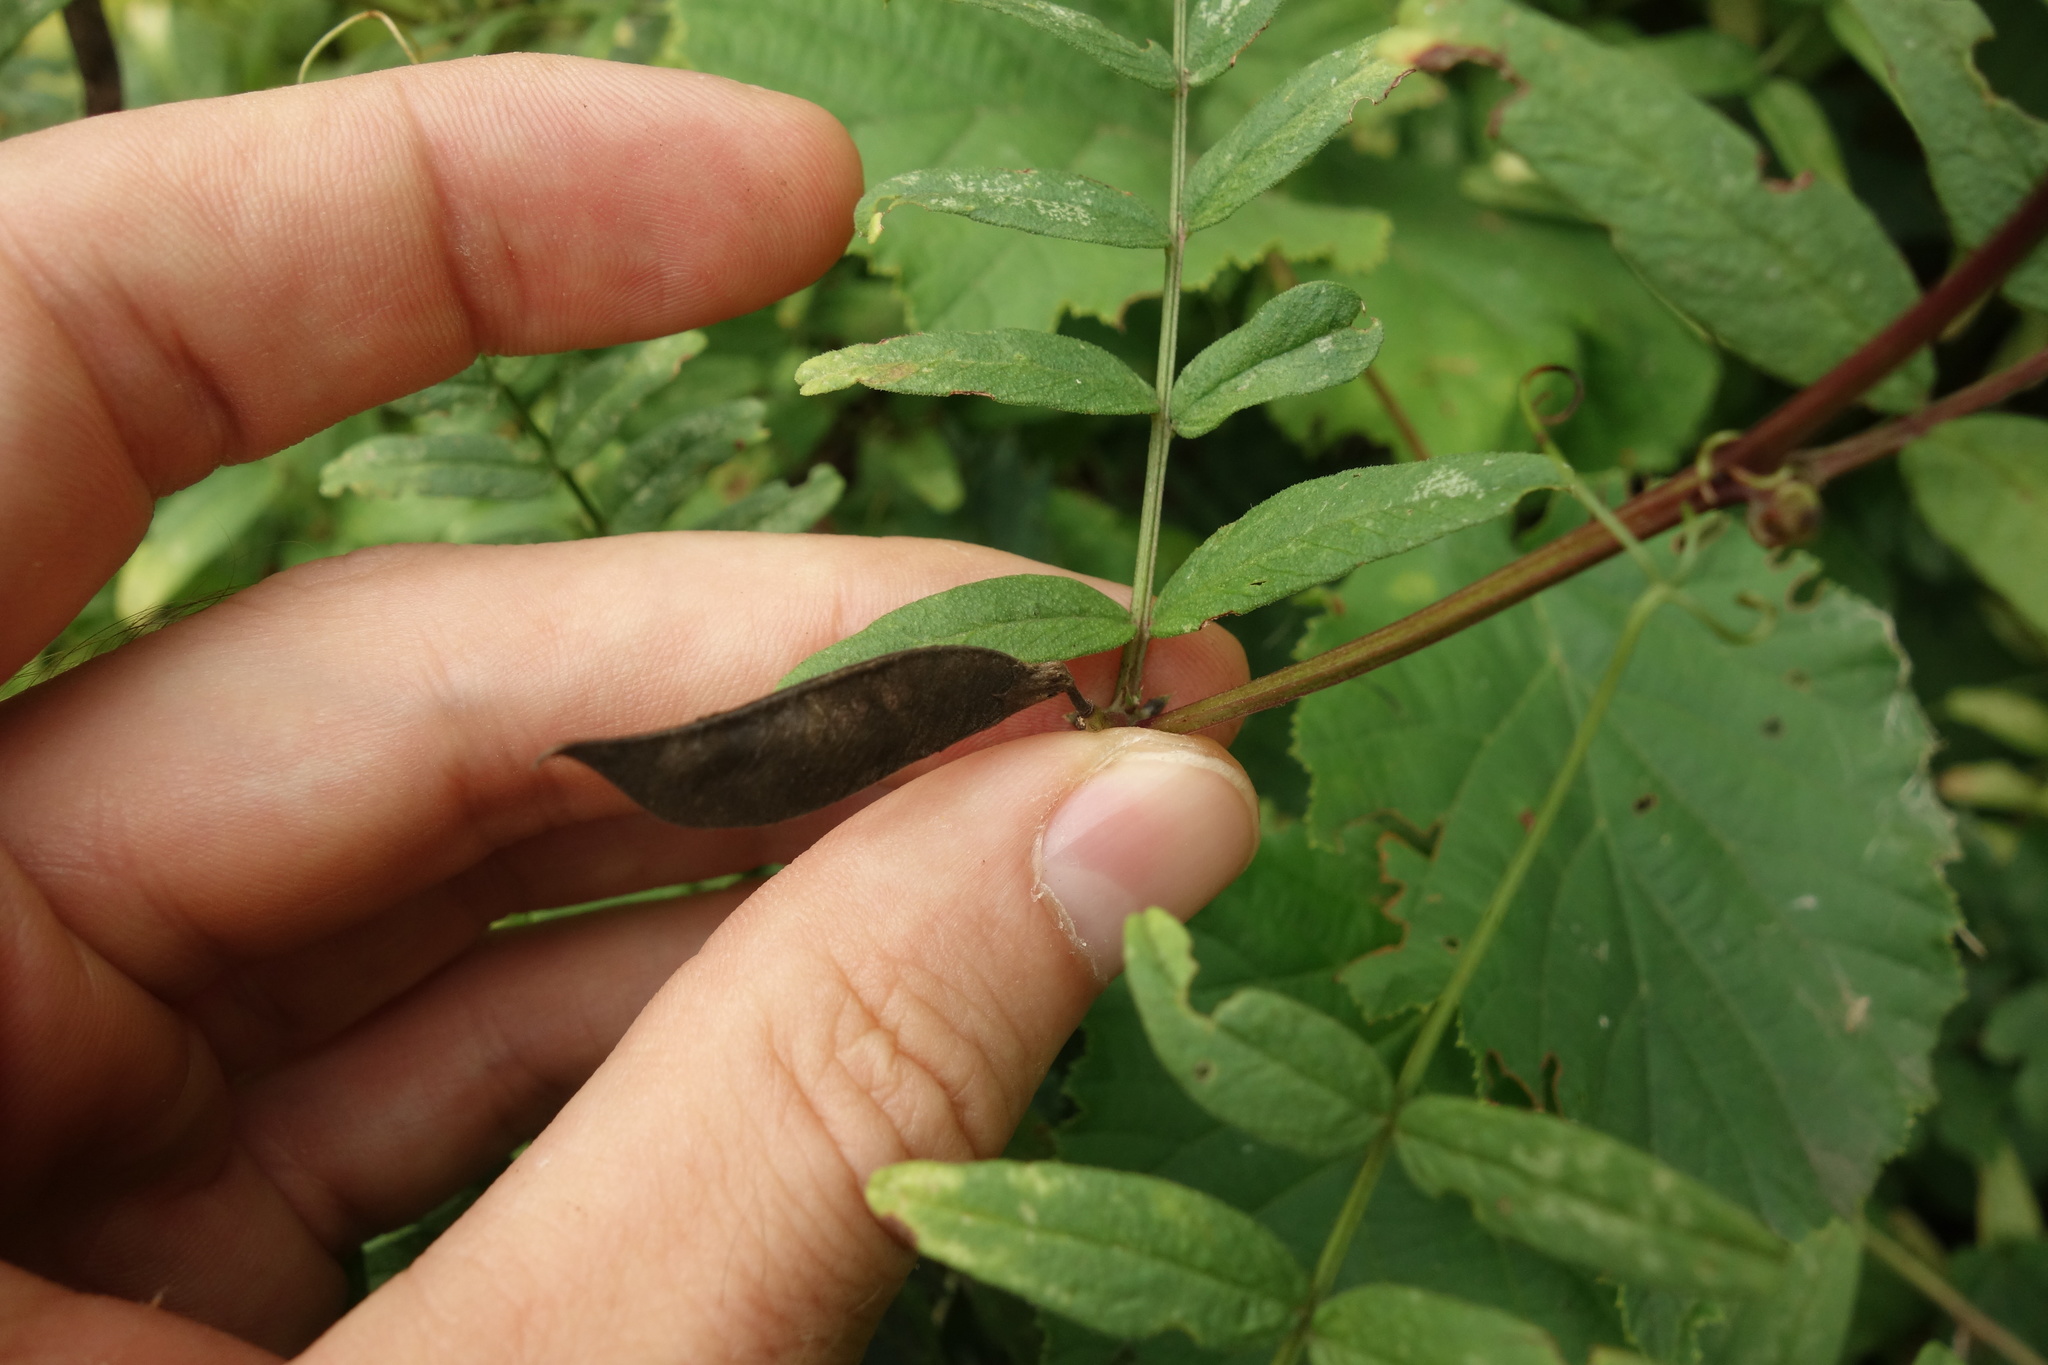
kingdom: Plantae
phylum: Tracheophyta
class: Magnoliopsida
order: Fabales
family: Fabaceae
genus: Vicia
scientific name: Vicia sepium
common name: Bush vetch
